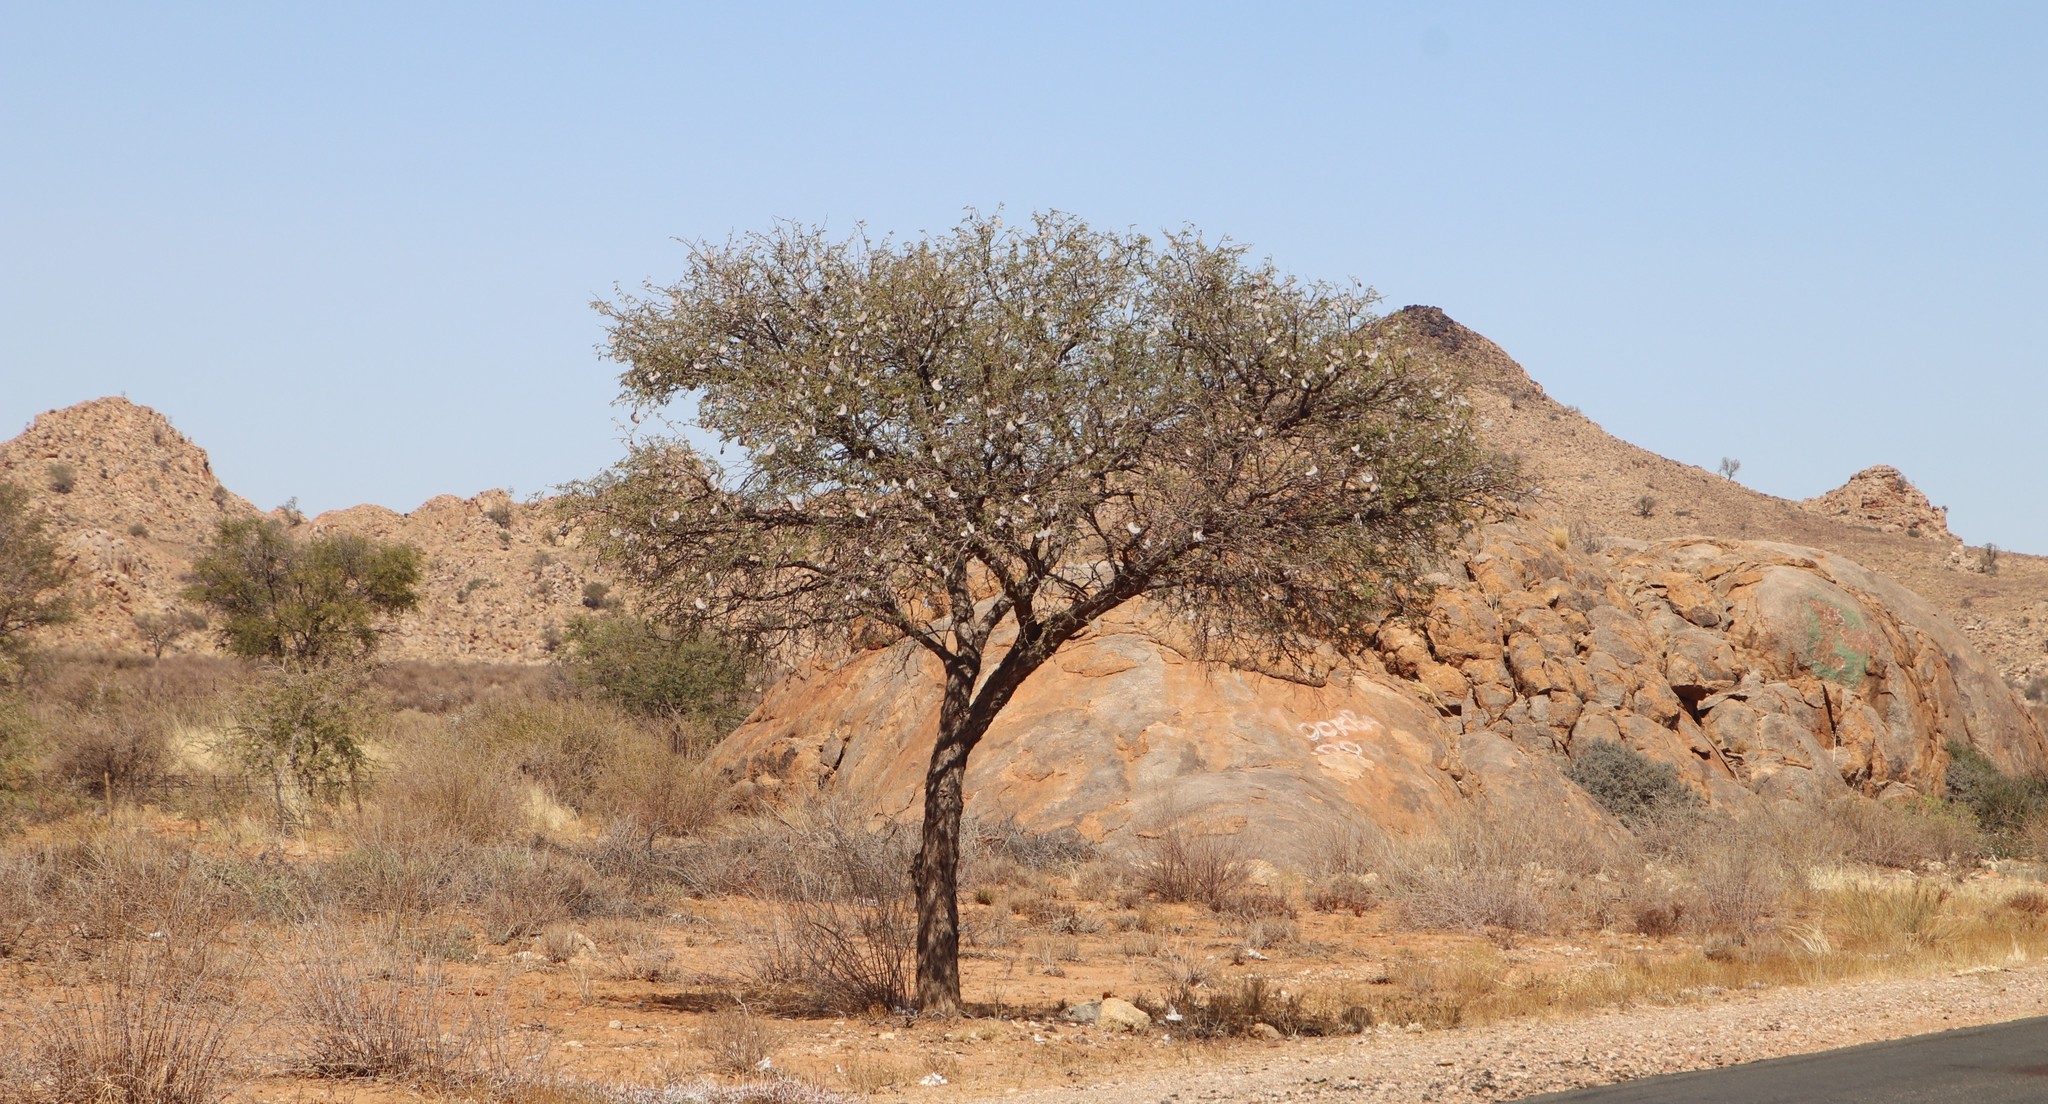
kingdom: Plantae
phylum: Tracheophyta
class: Magnoliopsida
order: Fabales
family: Fabaceae
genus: Vachellia
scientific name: Vachellia erioloba
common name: Camel thorn
